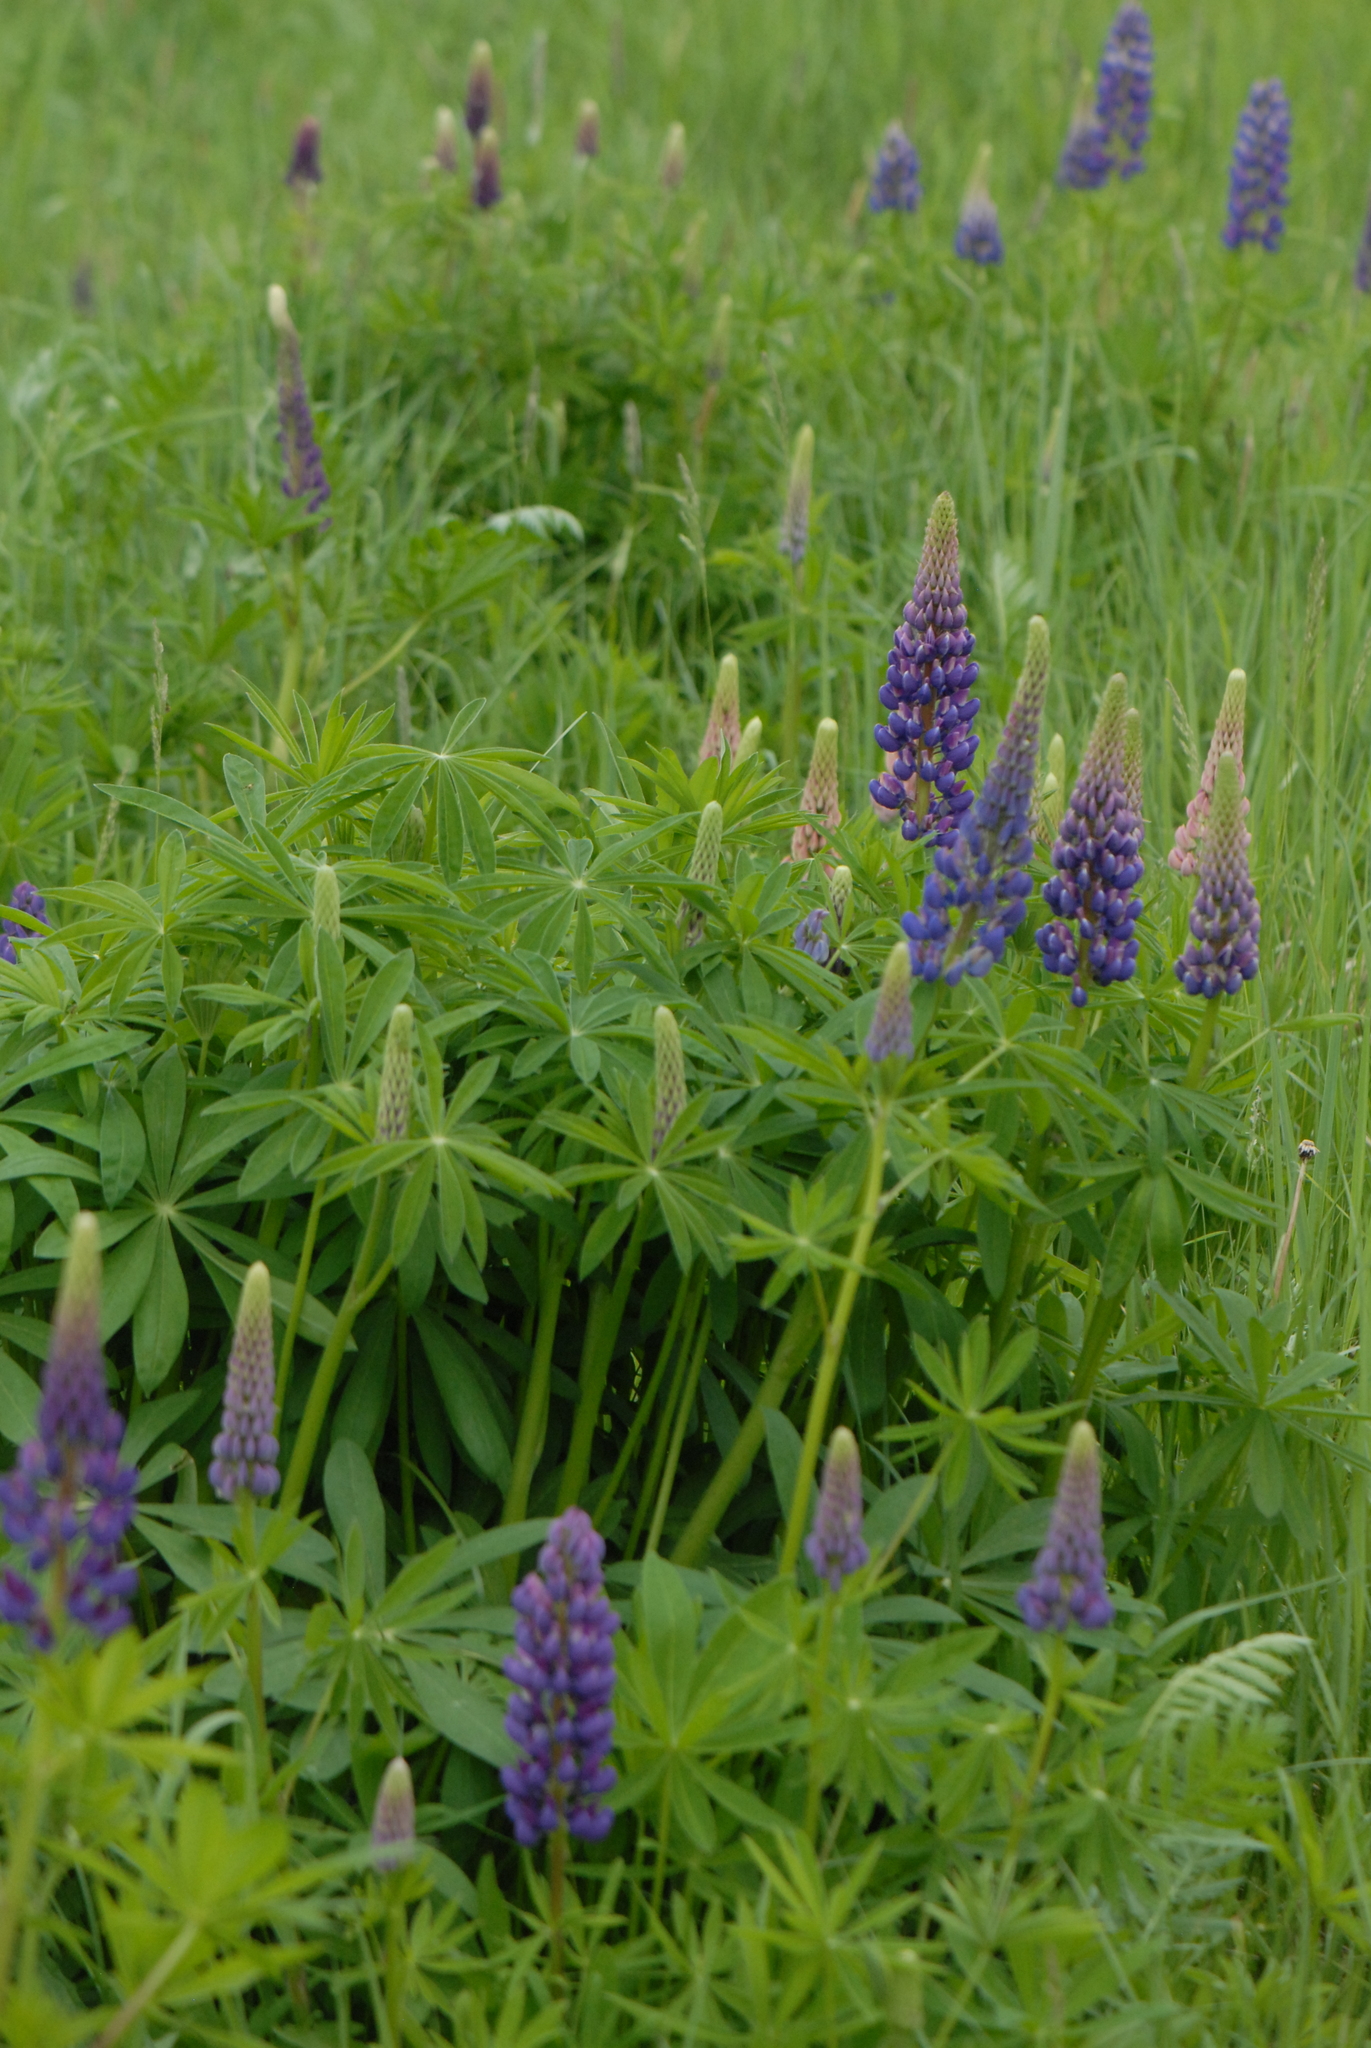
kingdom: Plantae
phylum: Tracheophyta
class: Magnoliopsida
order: Fabales
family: Fabaceae
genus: Lupinus
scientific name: Lupinus polyphyllus
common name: Garden lupin
